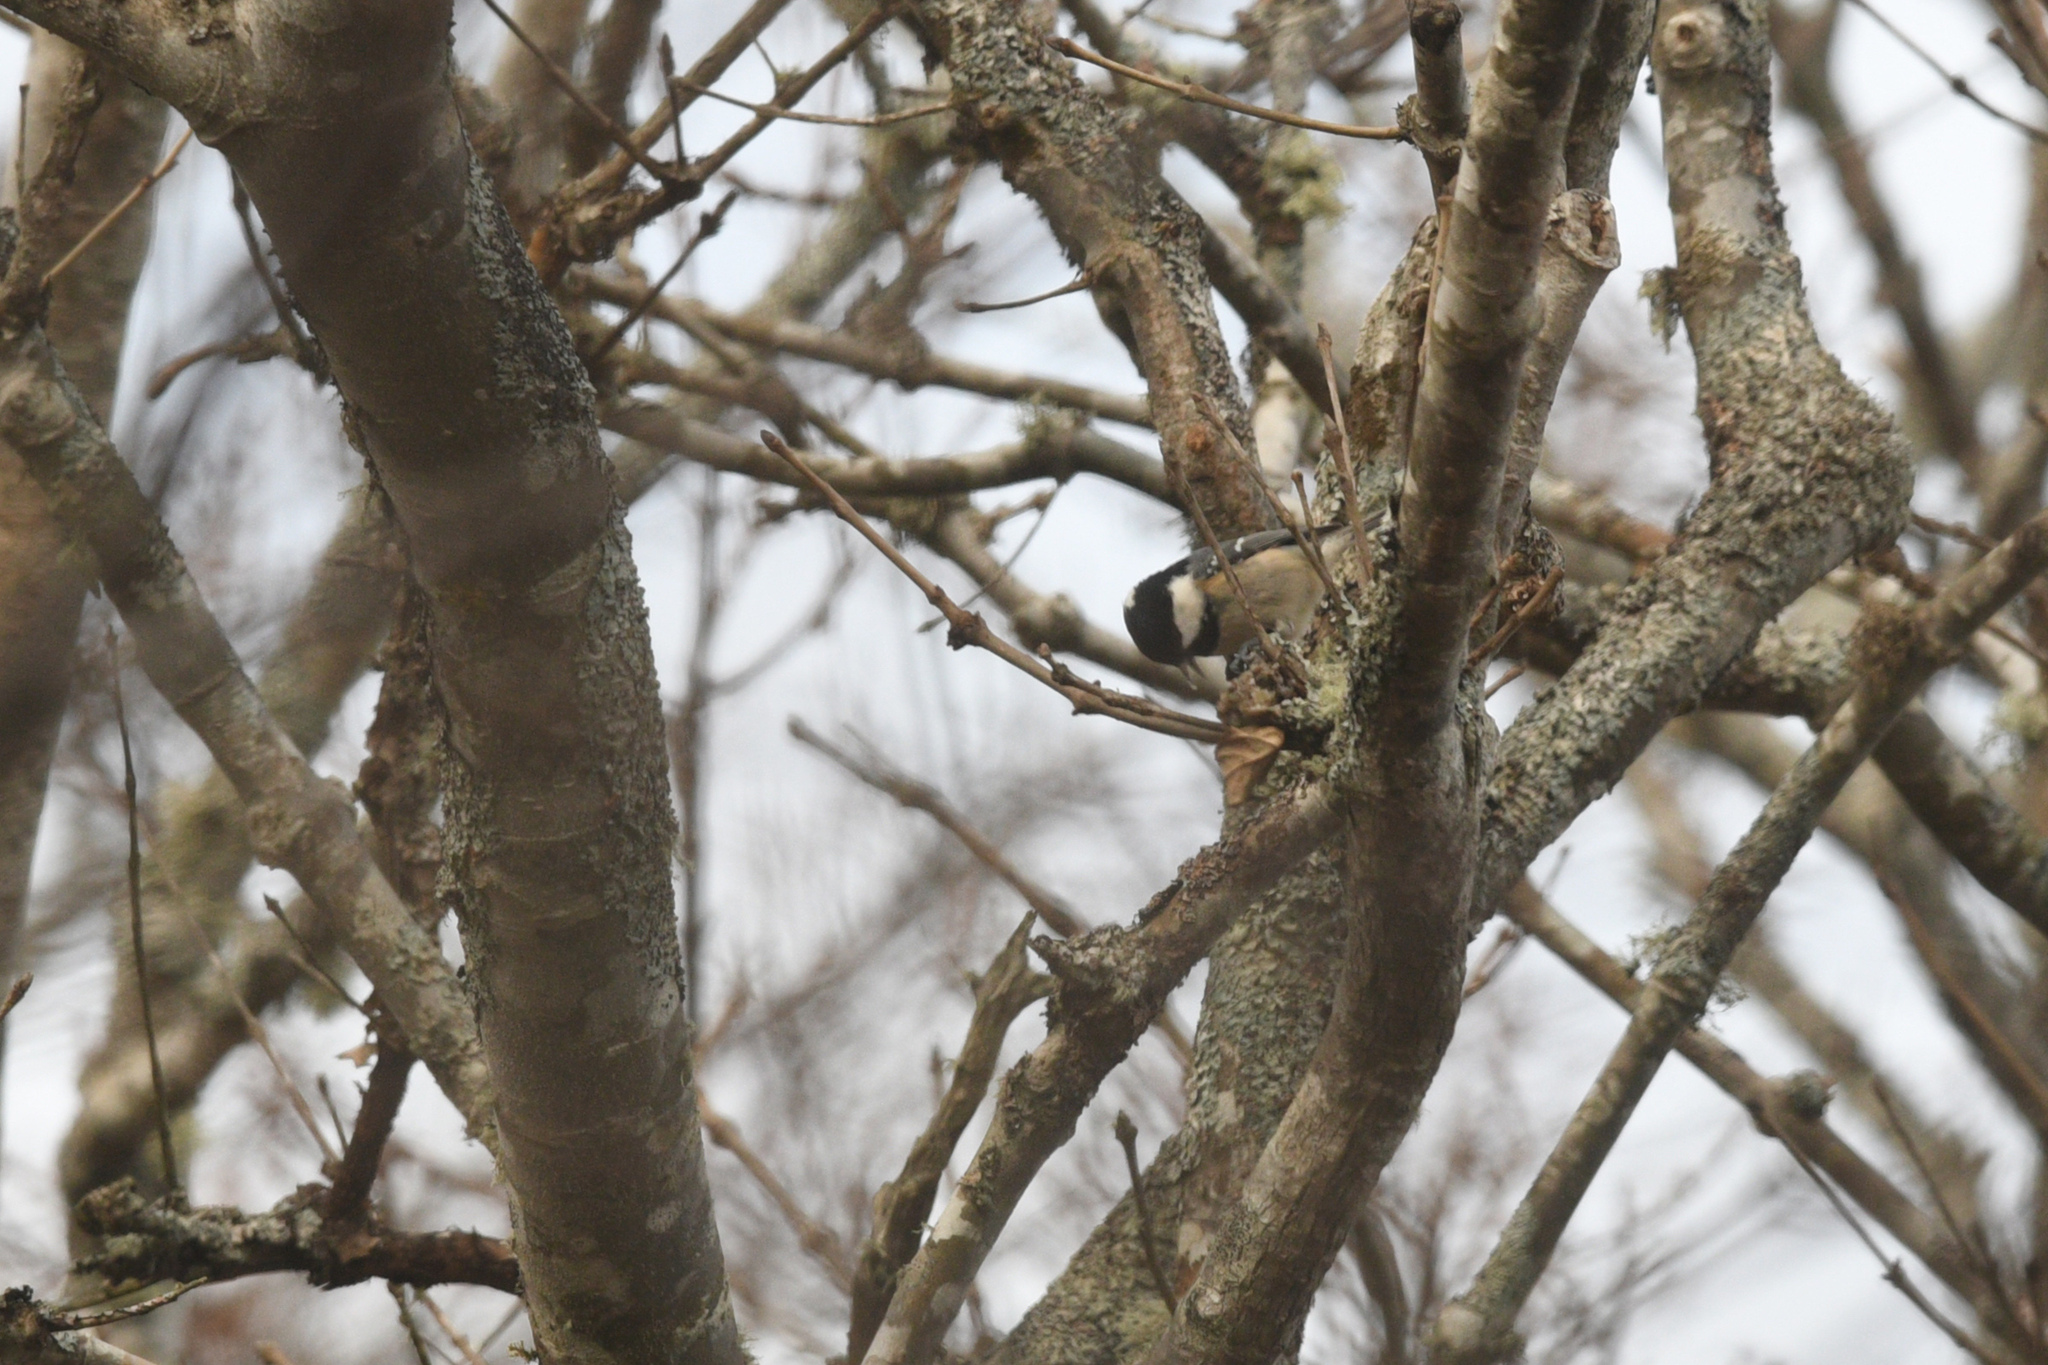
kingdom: Animalia
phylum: Chordata
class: Aves
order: Passeriformes
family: Paridae
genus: Periparus
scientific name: Periparus ater
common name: Coal tit
